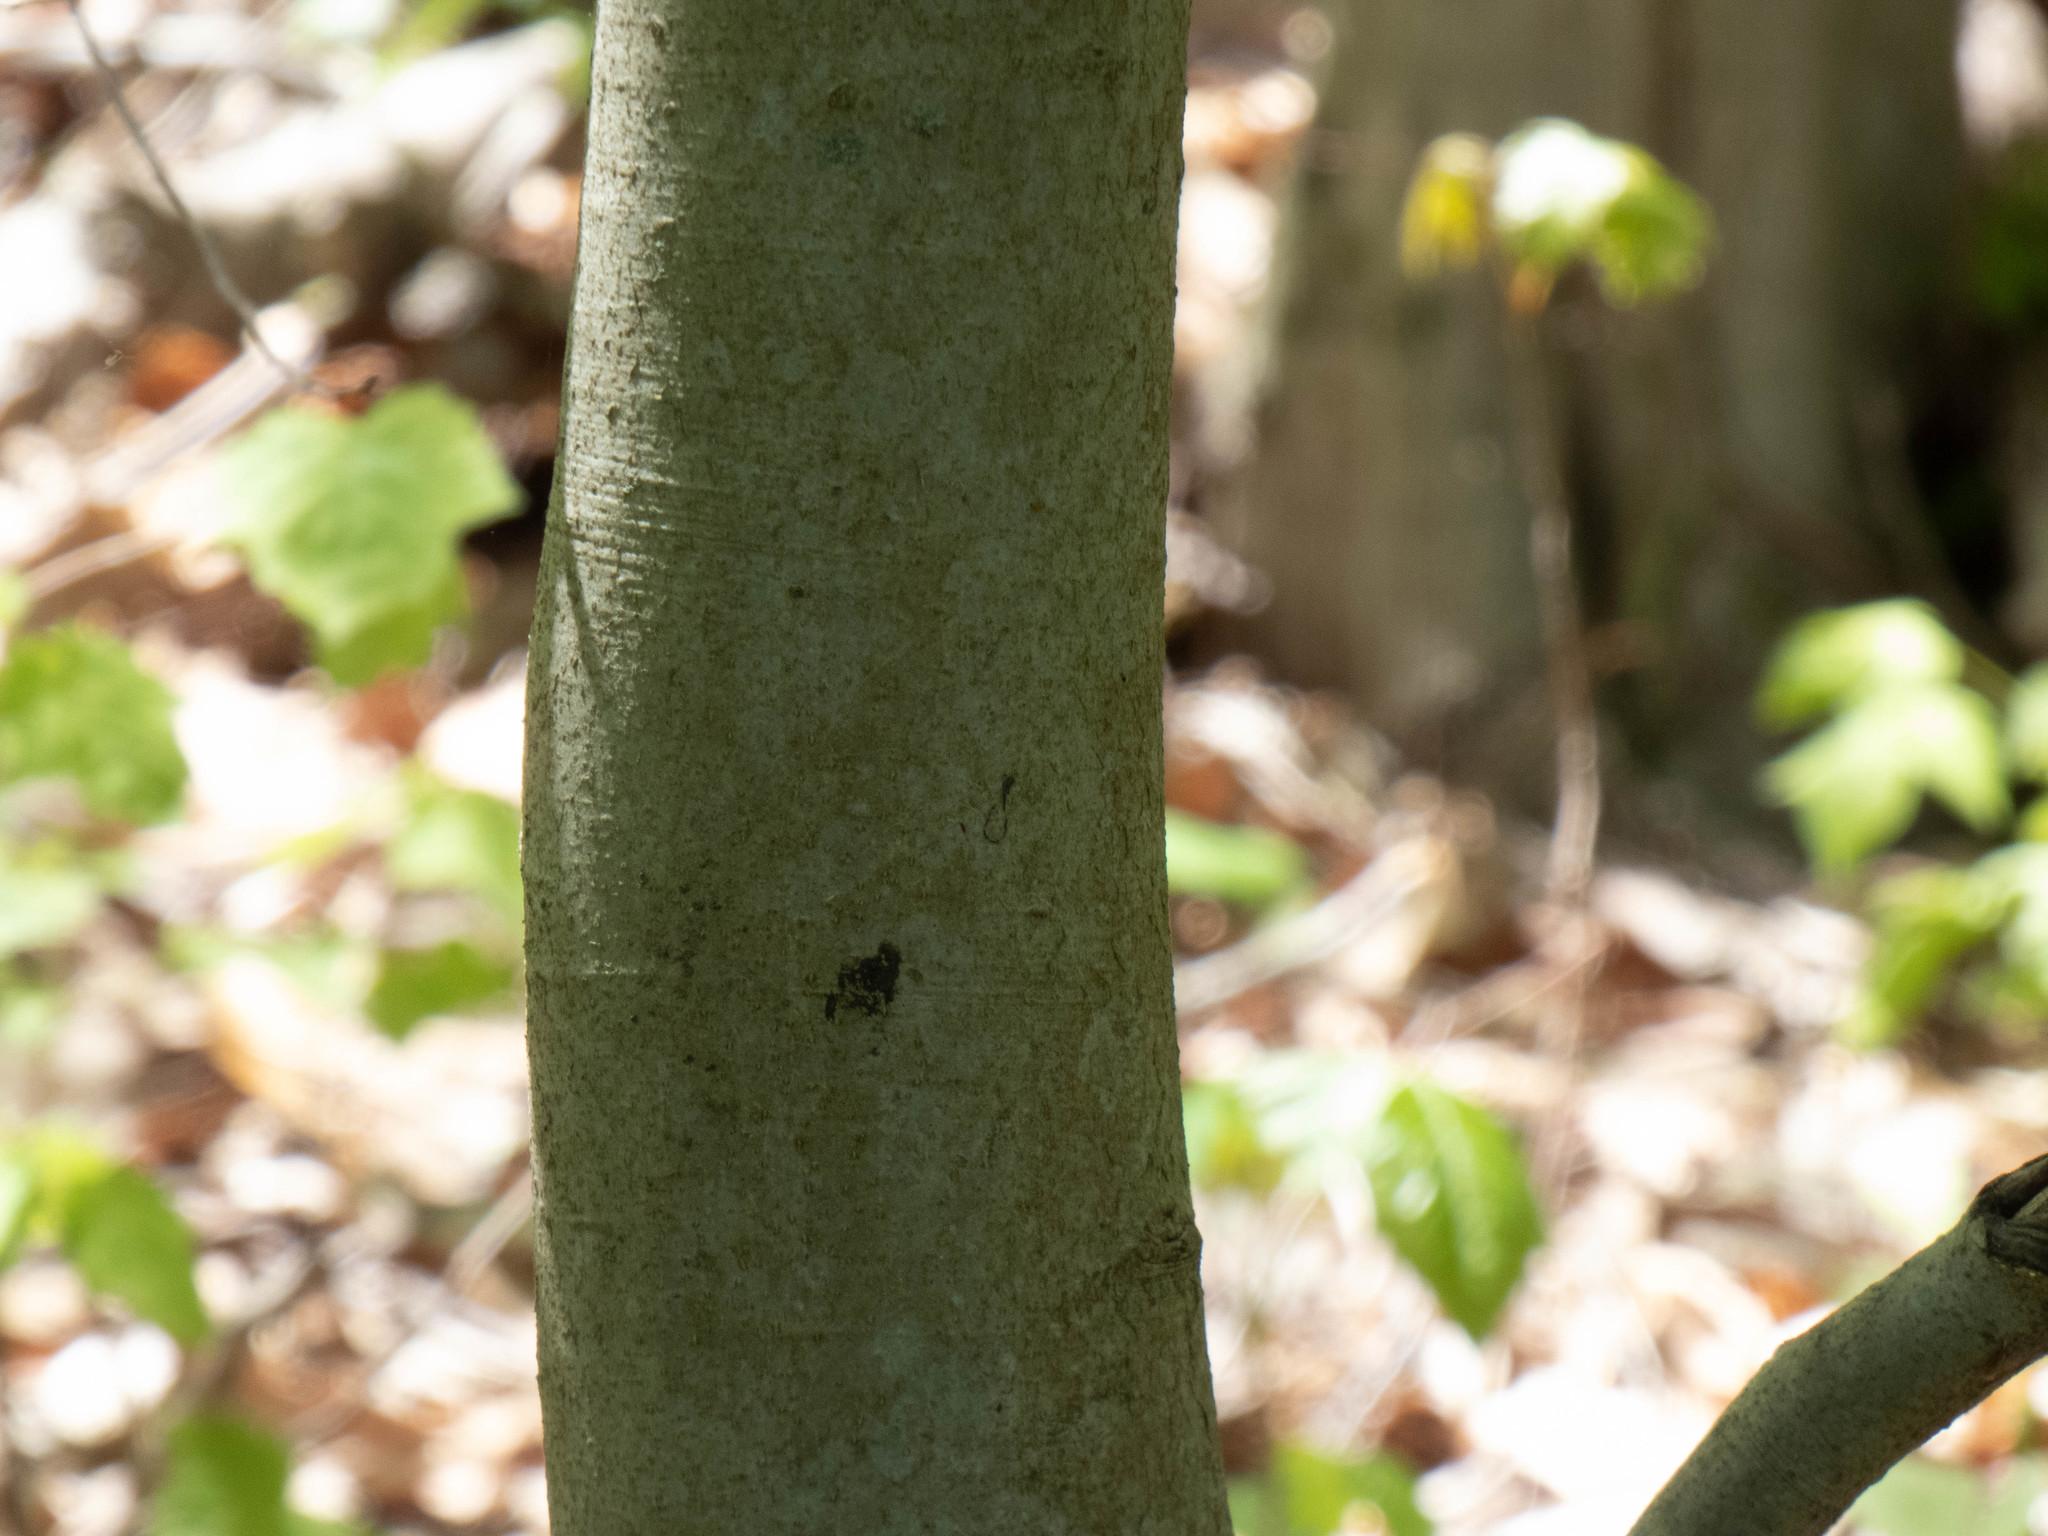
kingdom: Plantae
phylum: Tracheophyta
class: Magnoliopsida
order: Fagales
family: Fagaceae
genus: Fagus
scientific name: Fagus grandifolia
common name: American beech
